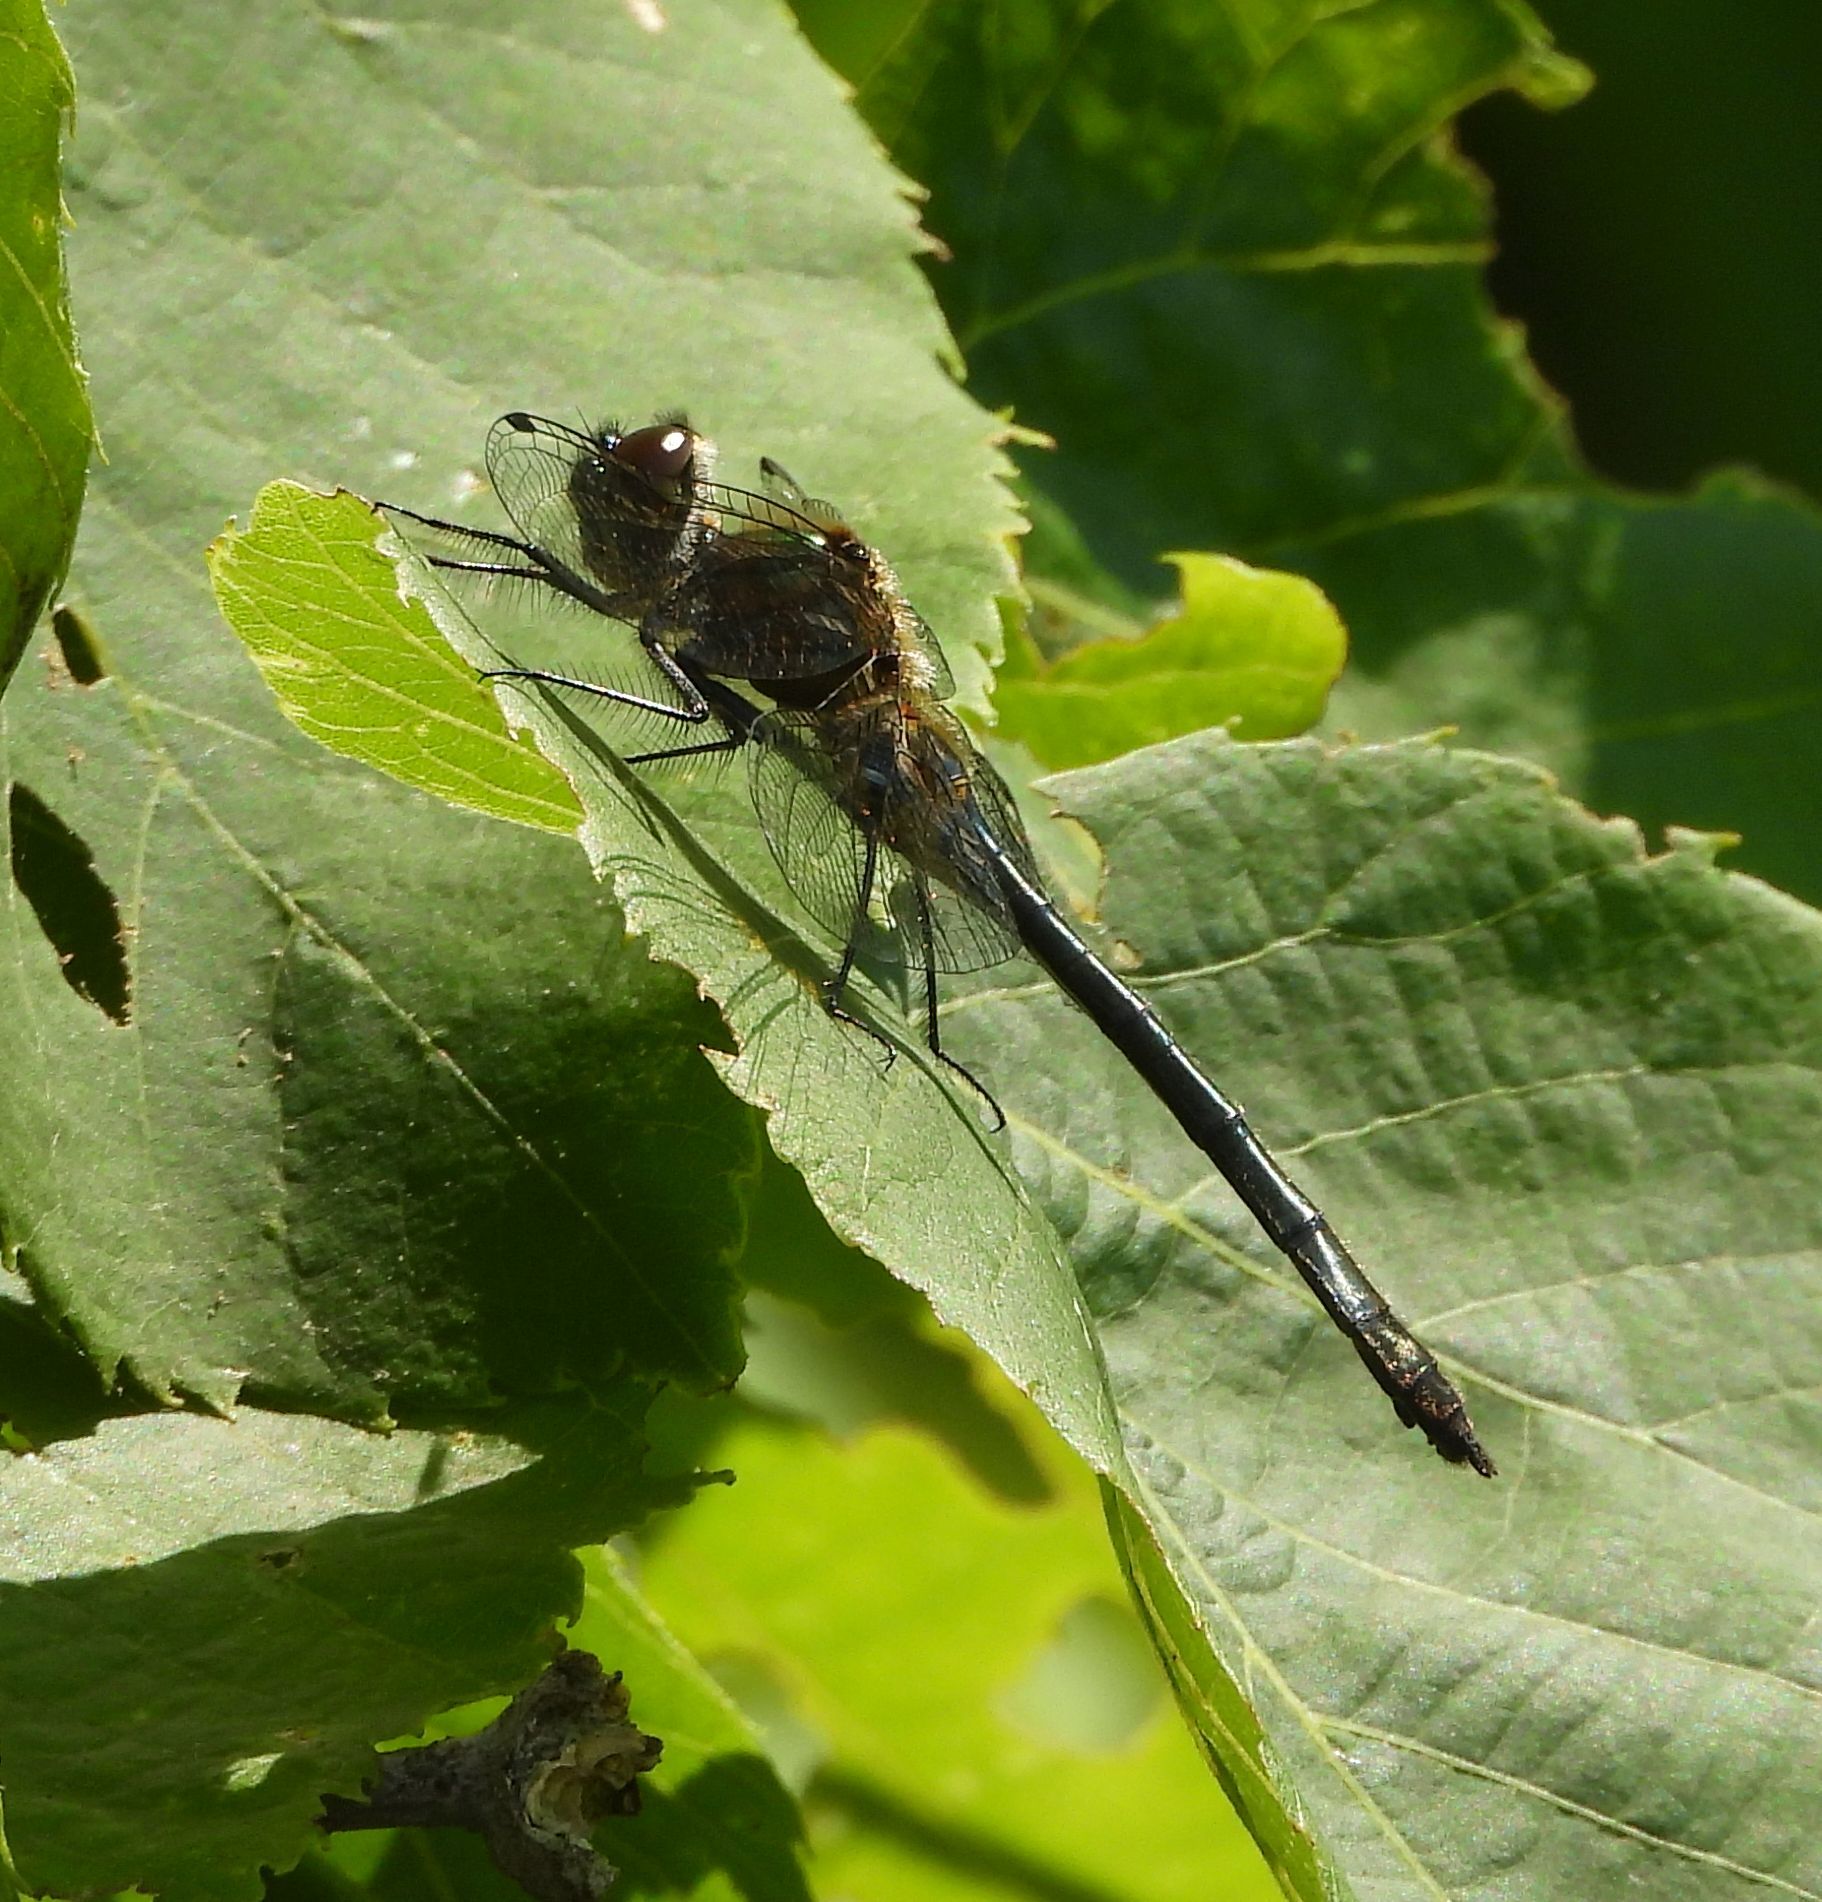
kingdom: Animalia
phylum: Arthropoda
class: Insecta
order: Odonata
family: Corduliidae
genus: Dorocordulia
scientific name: Dorocordulia libera
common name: Racket-tailed emerald
